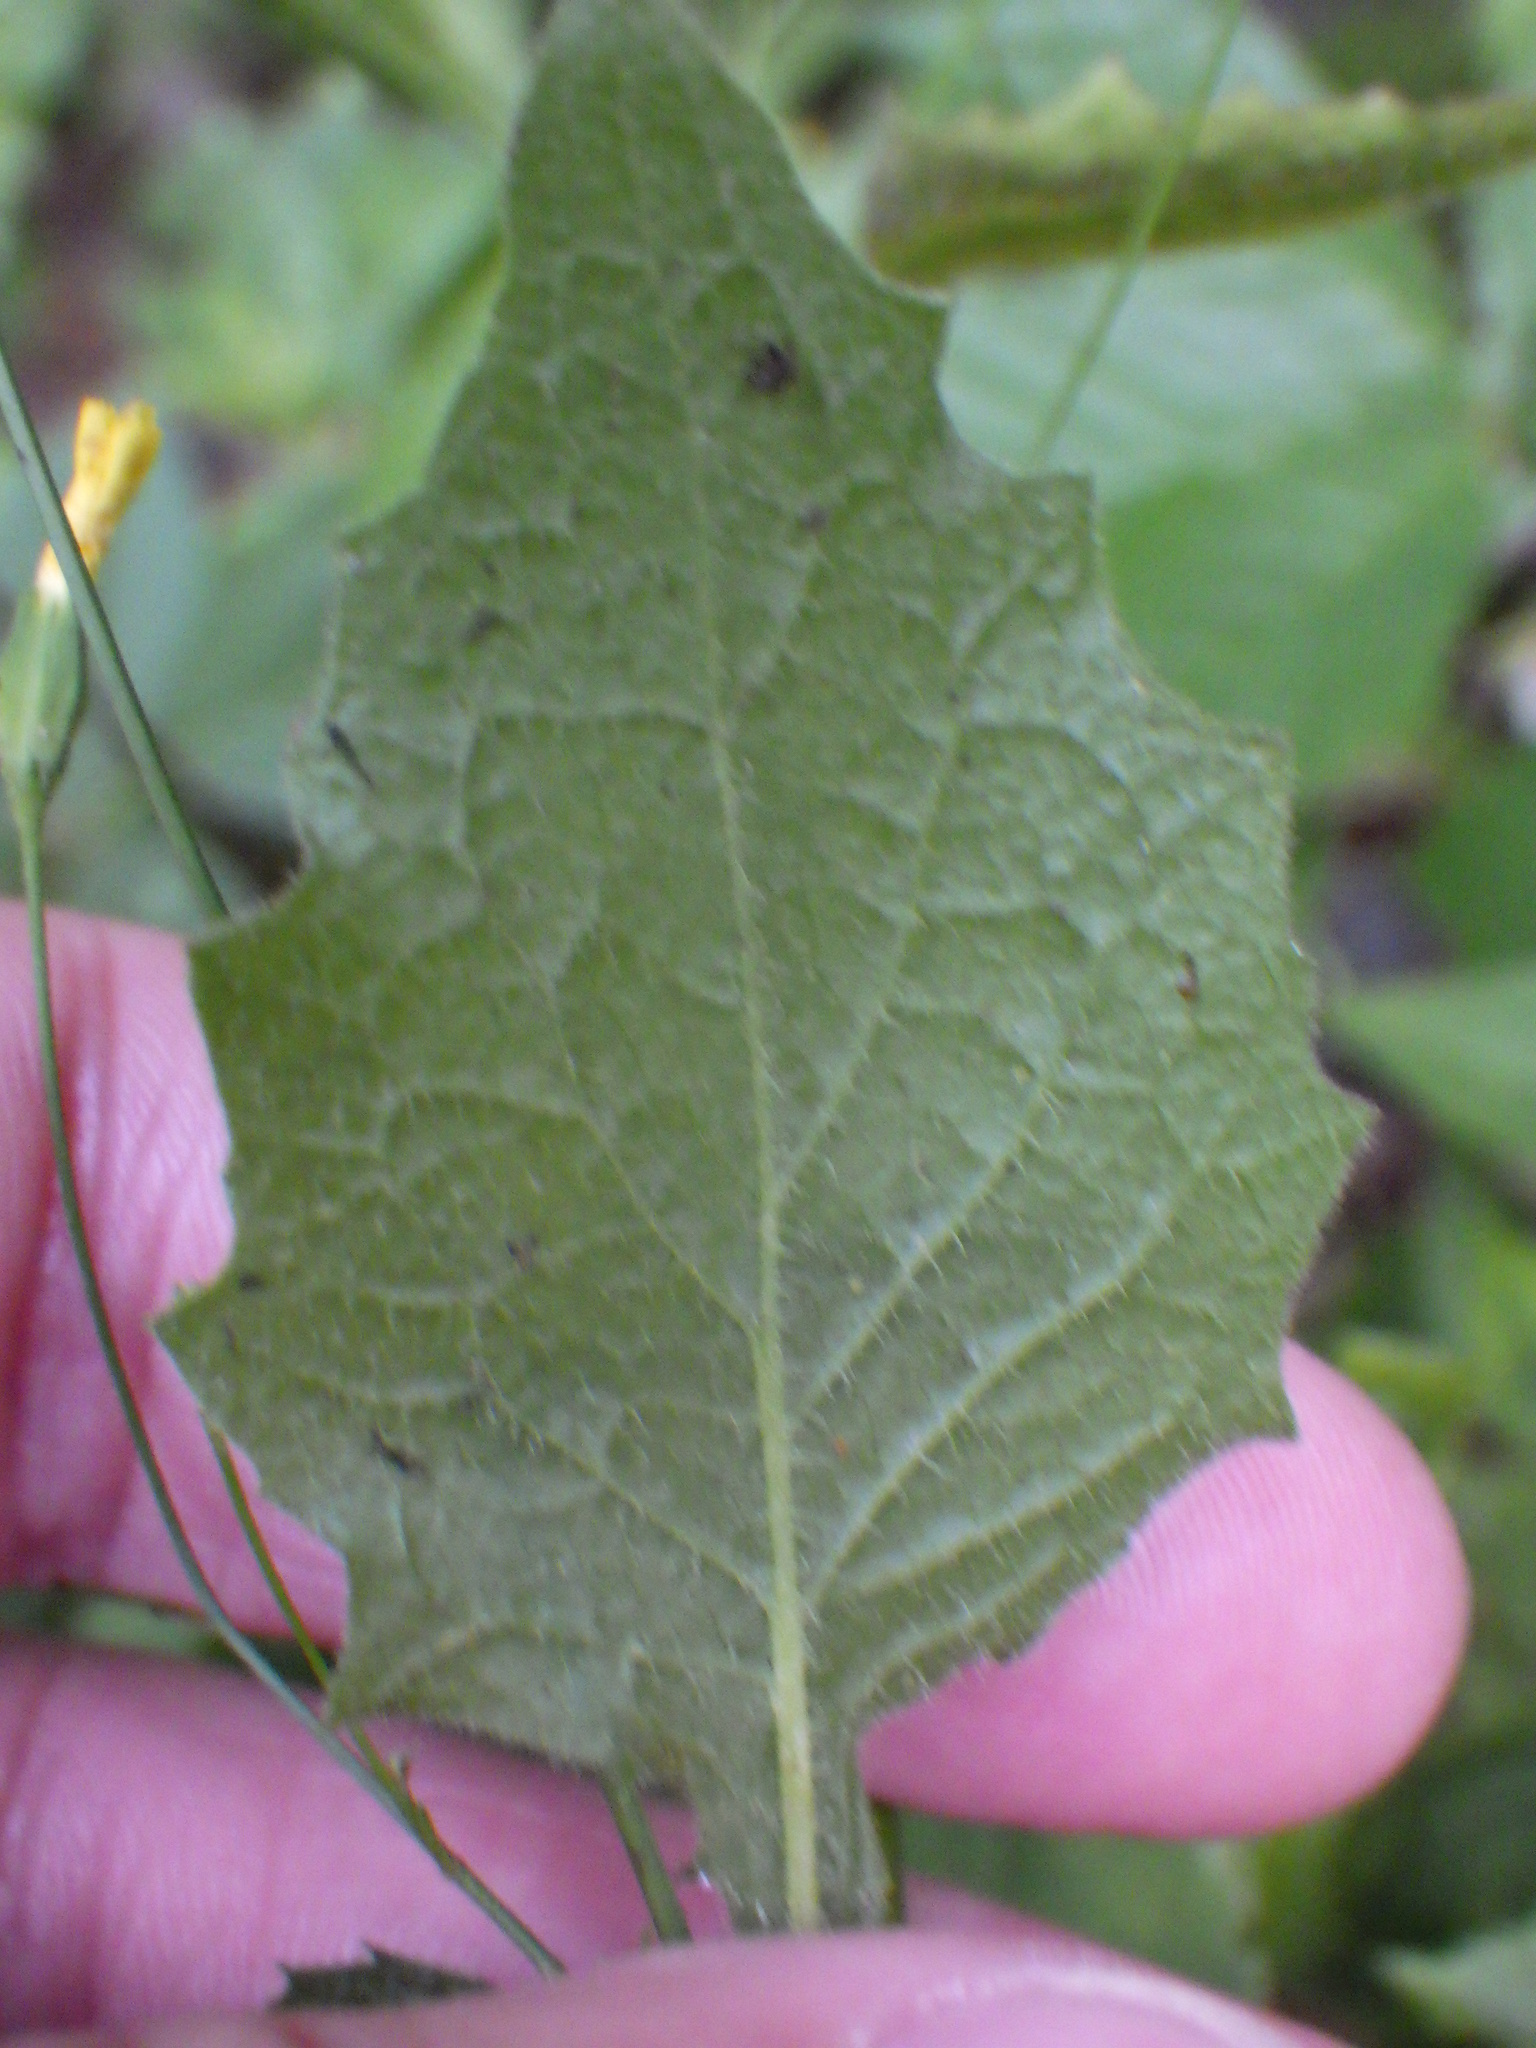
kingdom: Plantae
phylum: Tracheophyta
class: Magnoliopsida
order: Asterales
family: Asteraceae
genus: Lapsana
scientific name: Lapsana communis
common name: Nipplewort
